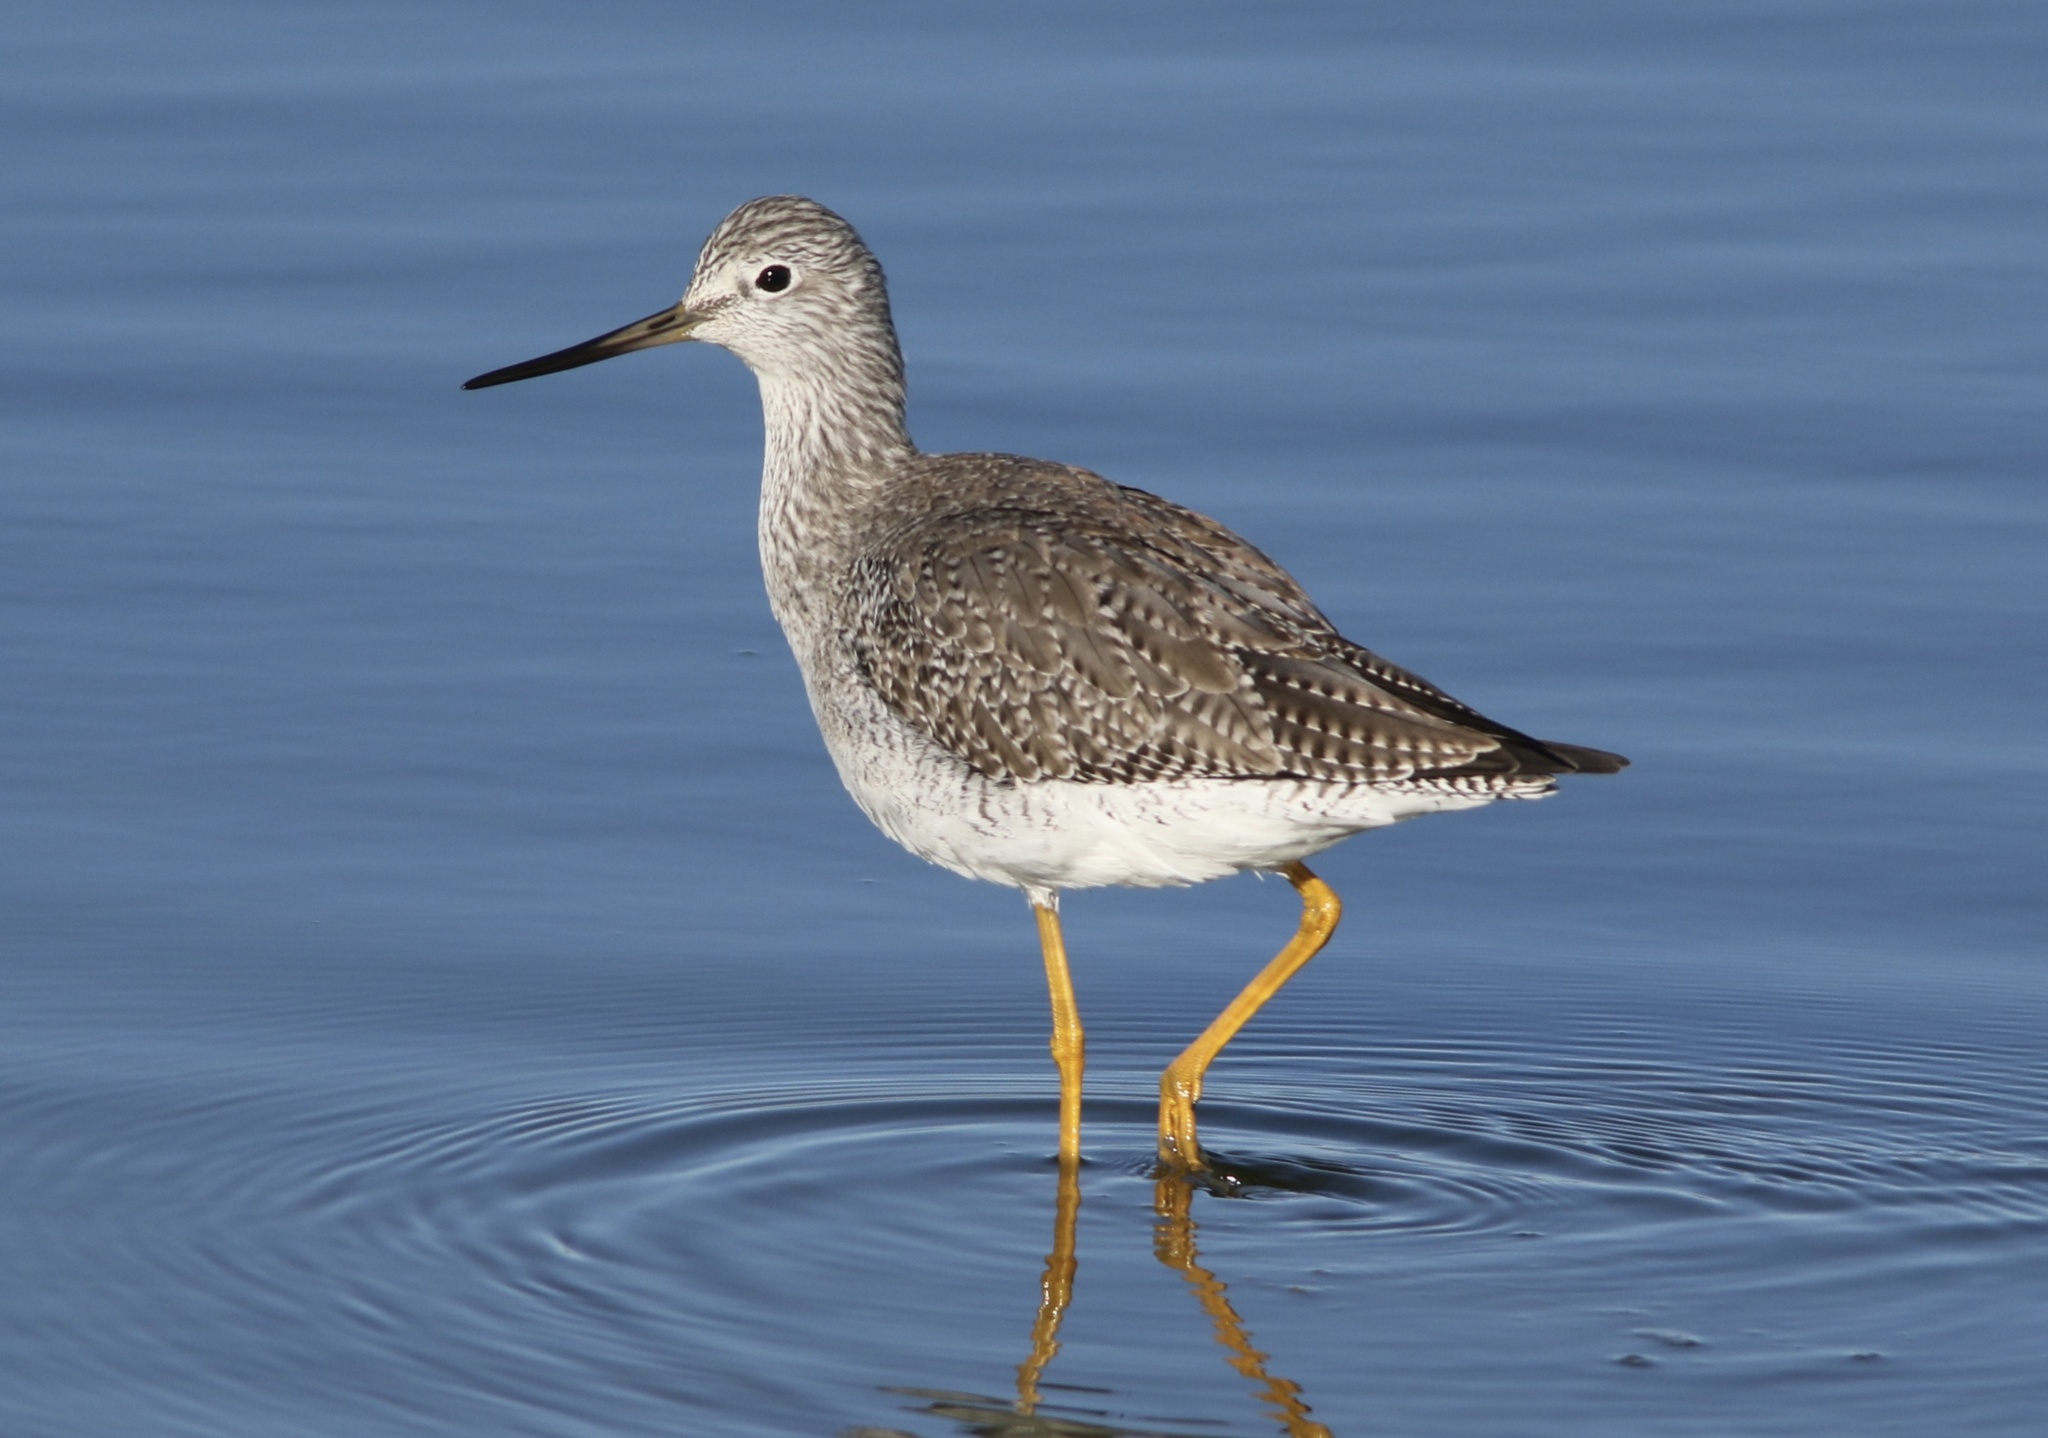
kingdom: Animalia
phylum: Chordata
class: Aves
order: Charadriiformes
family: Scolopacidae
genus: Tringa
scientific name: Tringa melanoleuca
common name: Greater yellowlegs
